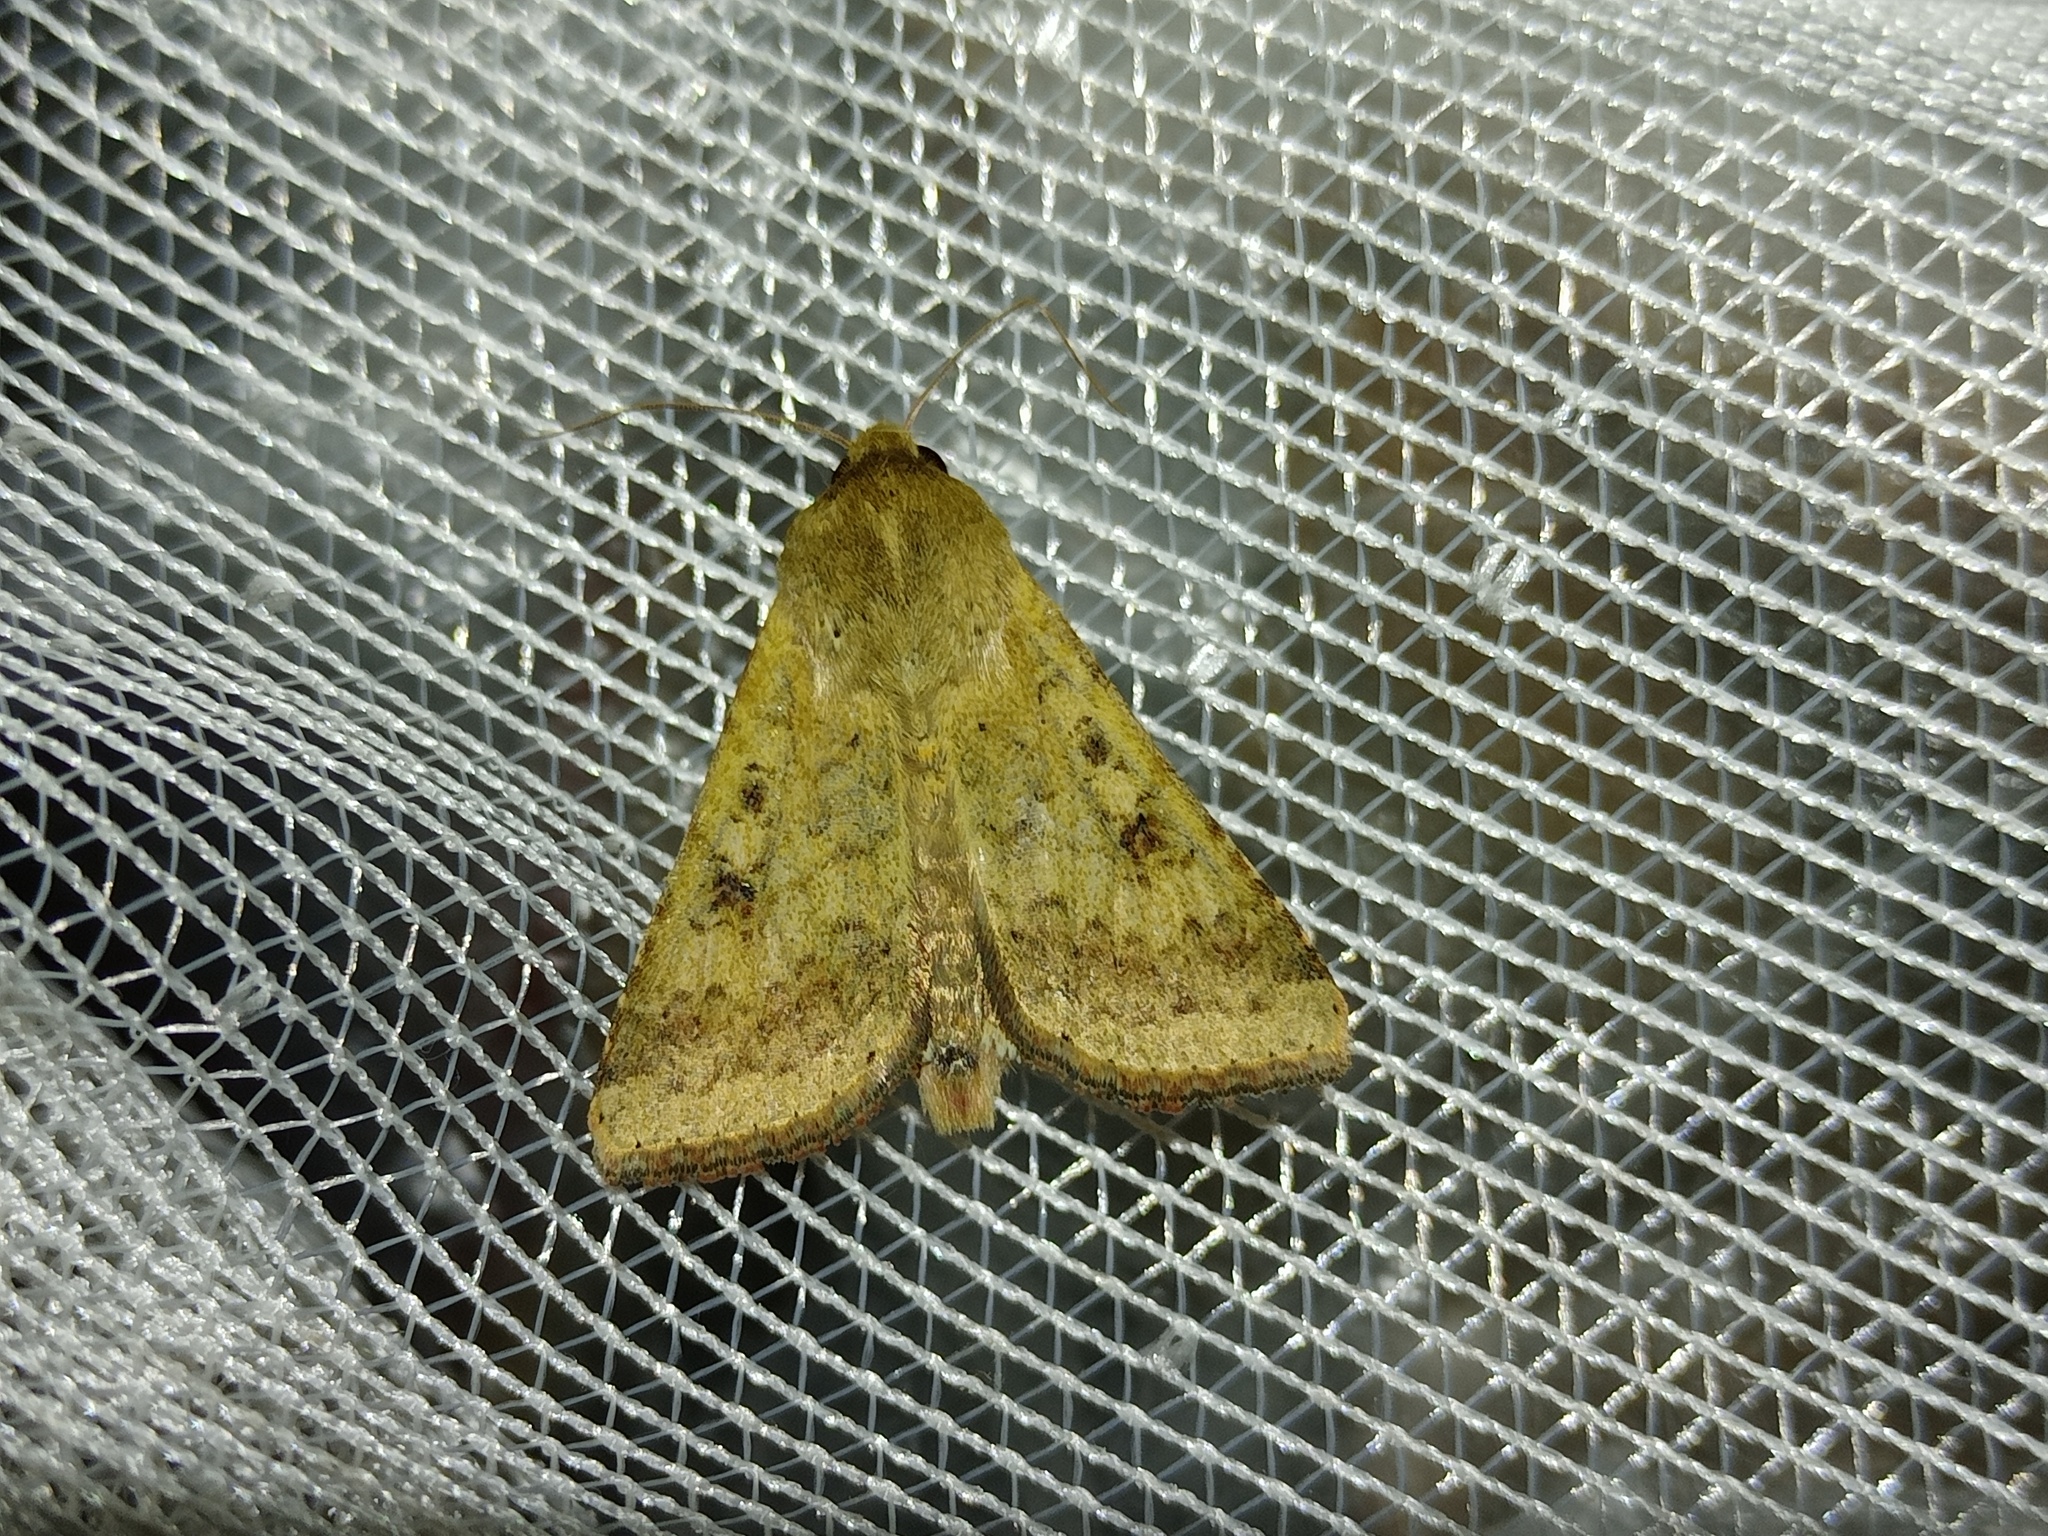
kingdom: Animalia
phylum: Arthropoda
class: Insecta
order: Lepidoptera
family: Noctuidae
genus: Helicoverpa
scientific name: Helicoverpa armigera
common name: Cotton bollworm
